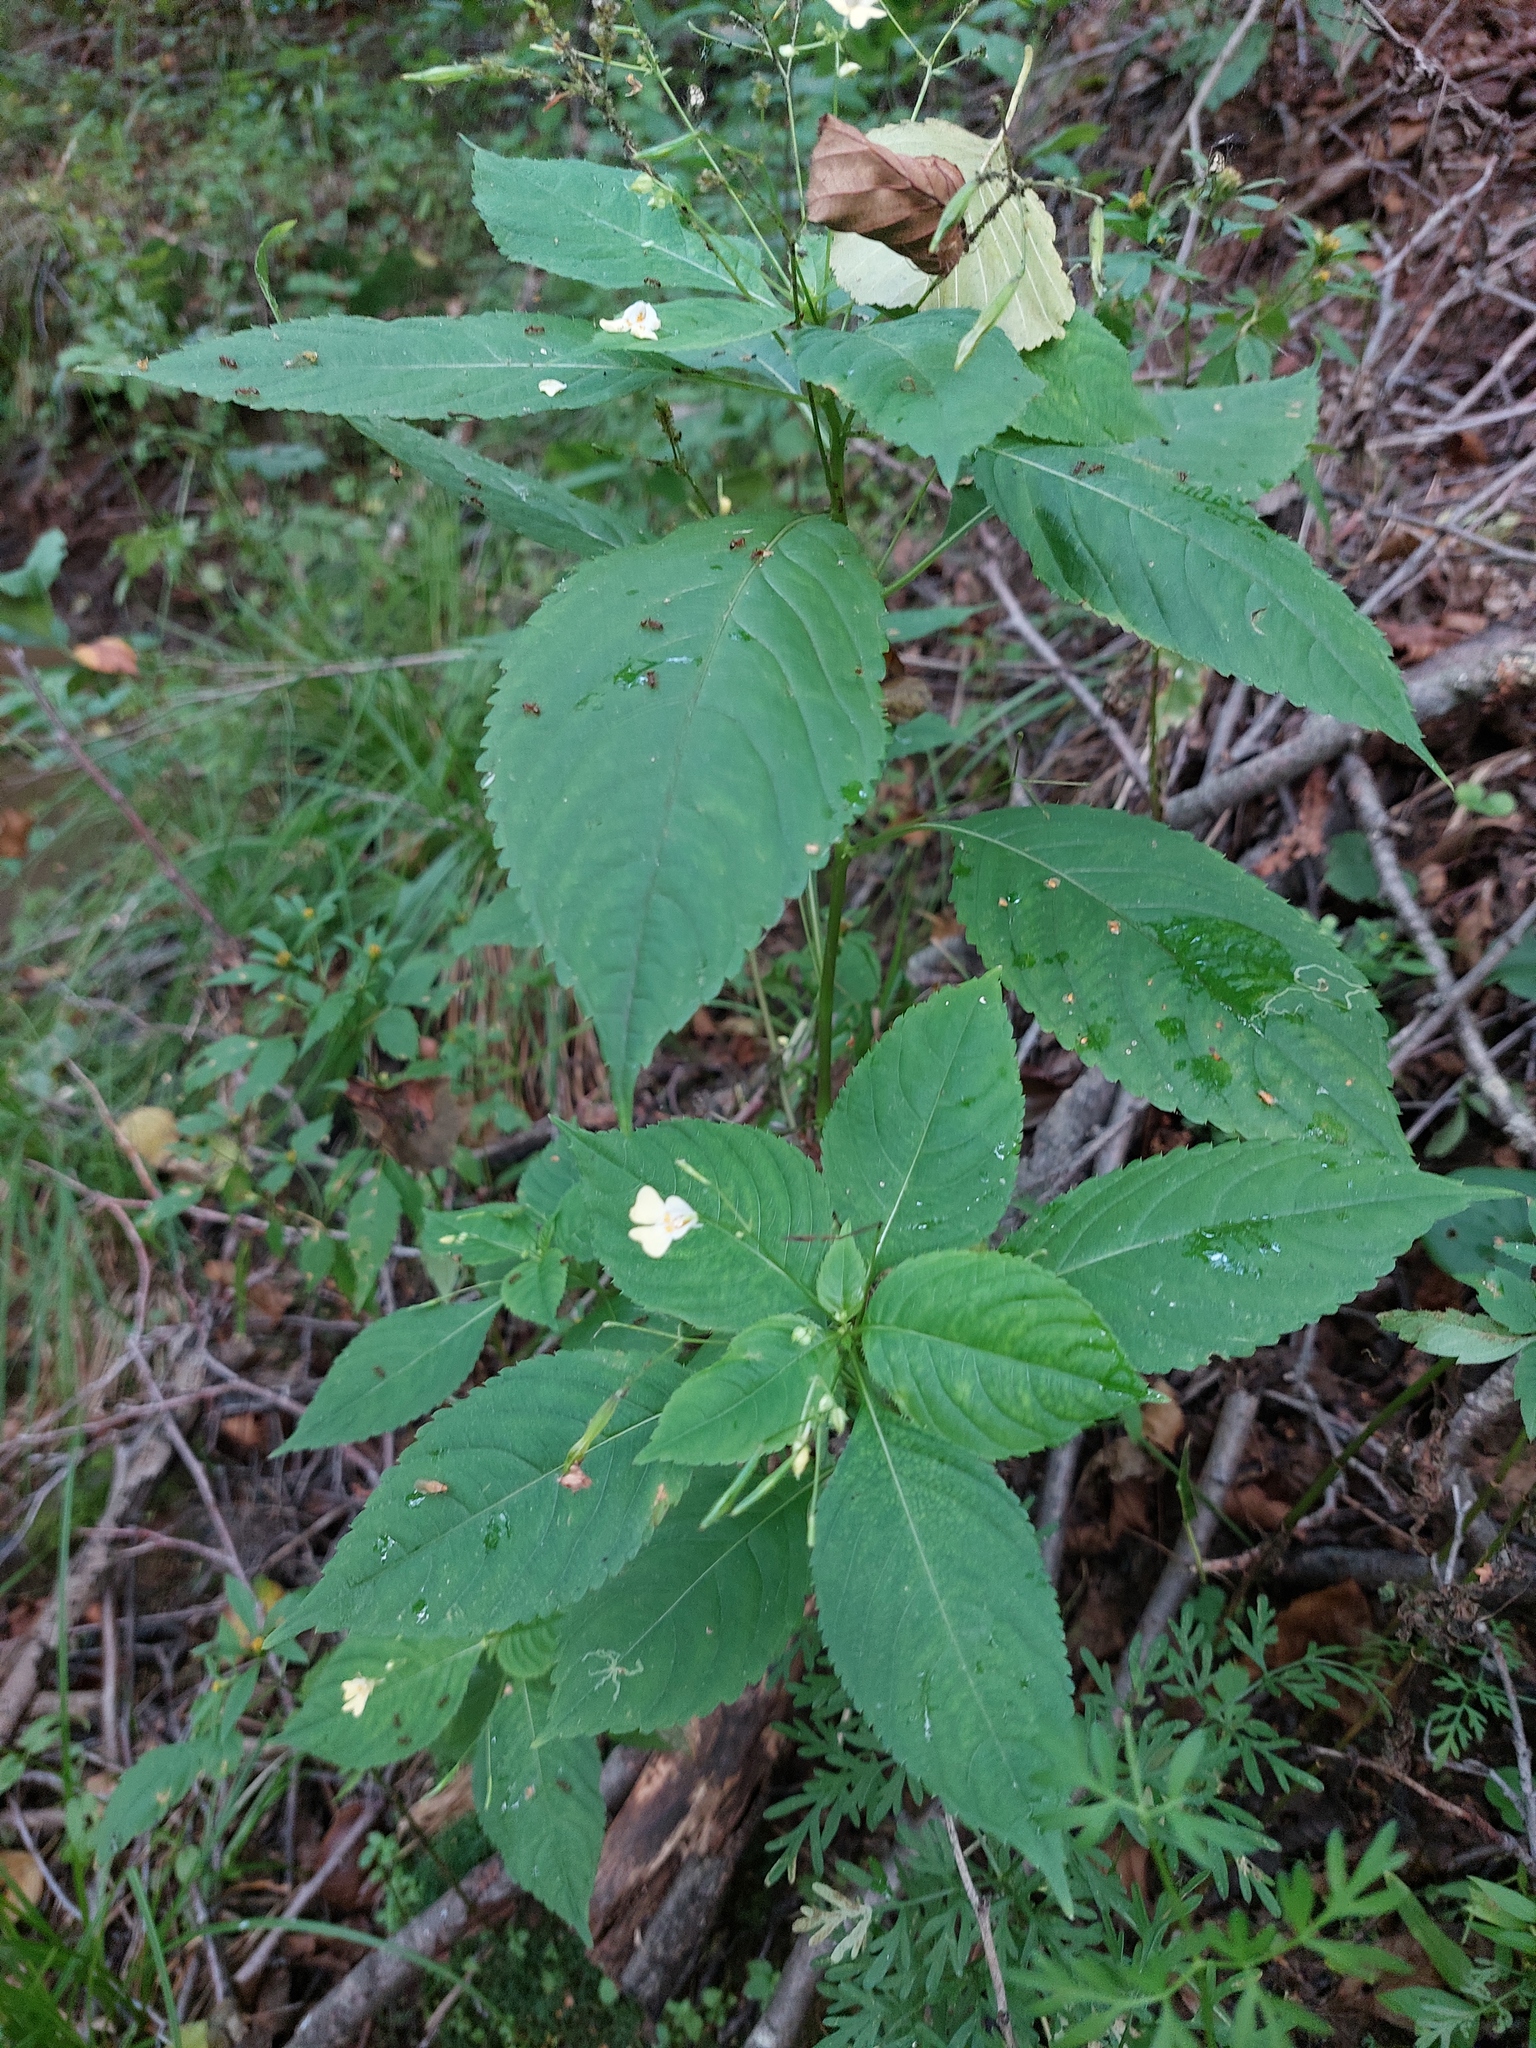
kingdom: Plantae
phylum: Tracheophyta
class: Magnoliopsida
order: Ericales
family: Balsaminaceae
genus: Impatiens
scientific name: Impatiens parviflora
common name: Small balsam
